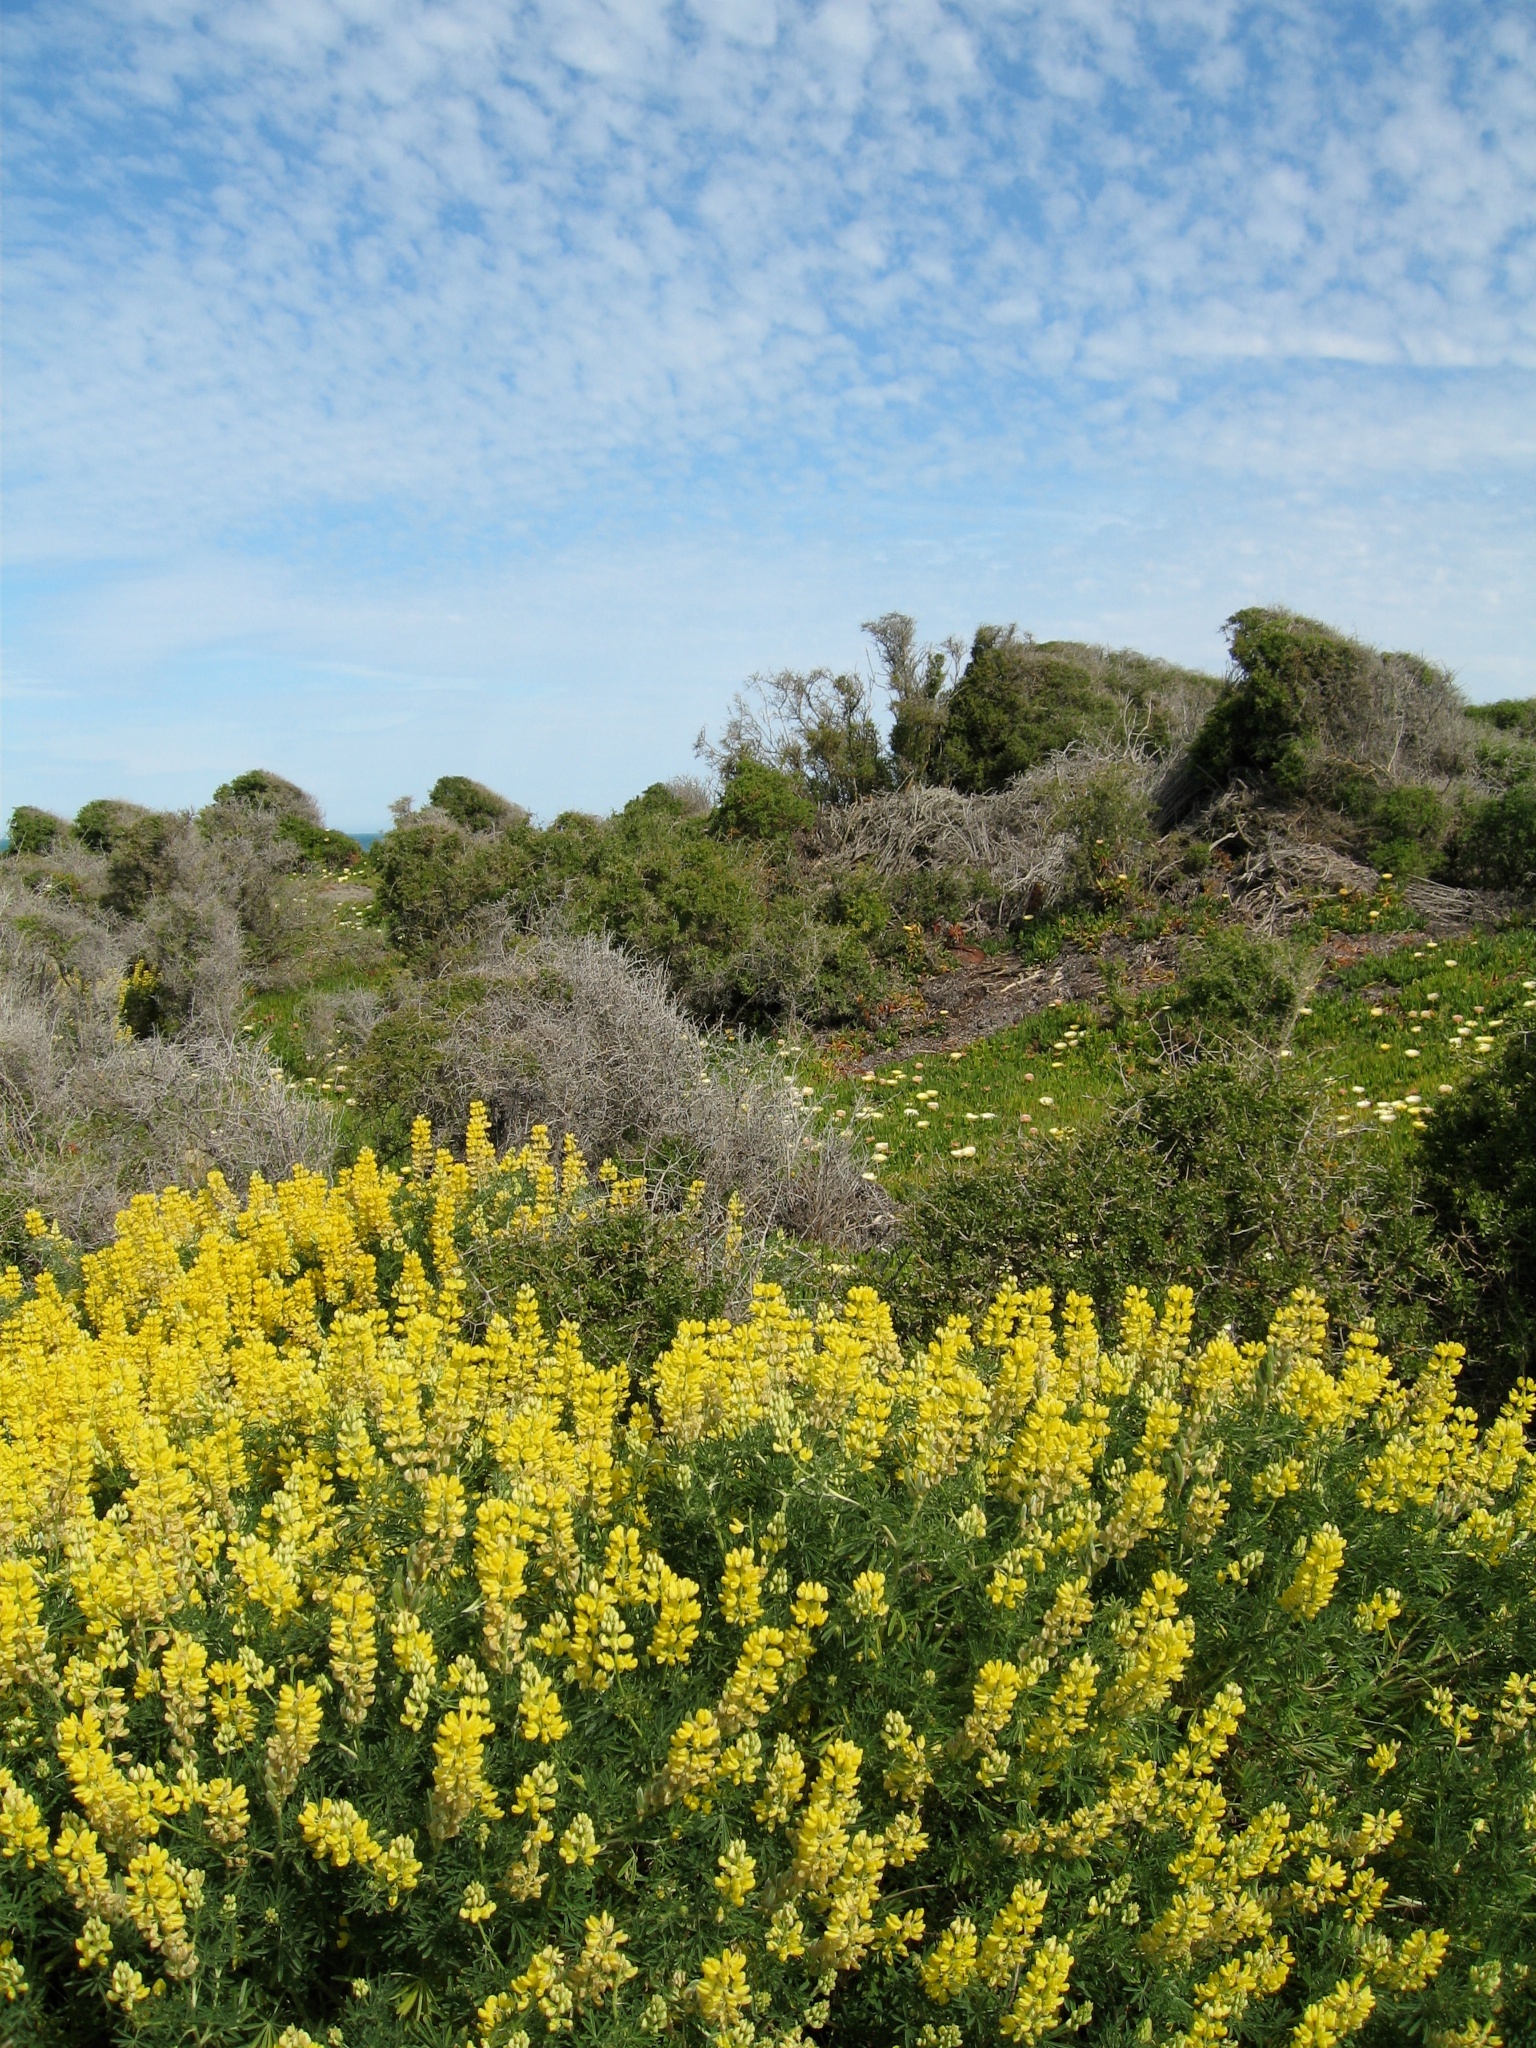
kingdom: Plantae
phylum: Tracheophyta
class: Magnoliopsida
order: Fabales
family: Fabaceae
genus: Lupinus
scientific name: Lupinus arboreus
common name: Yellow bush lupine
